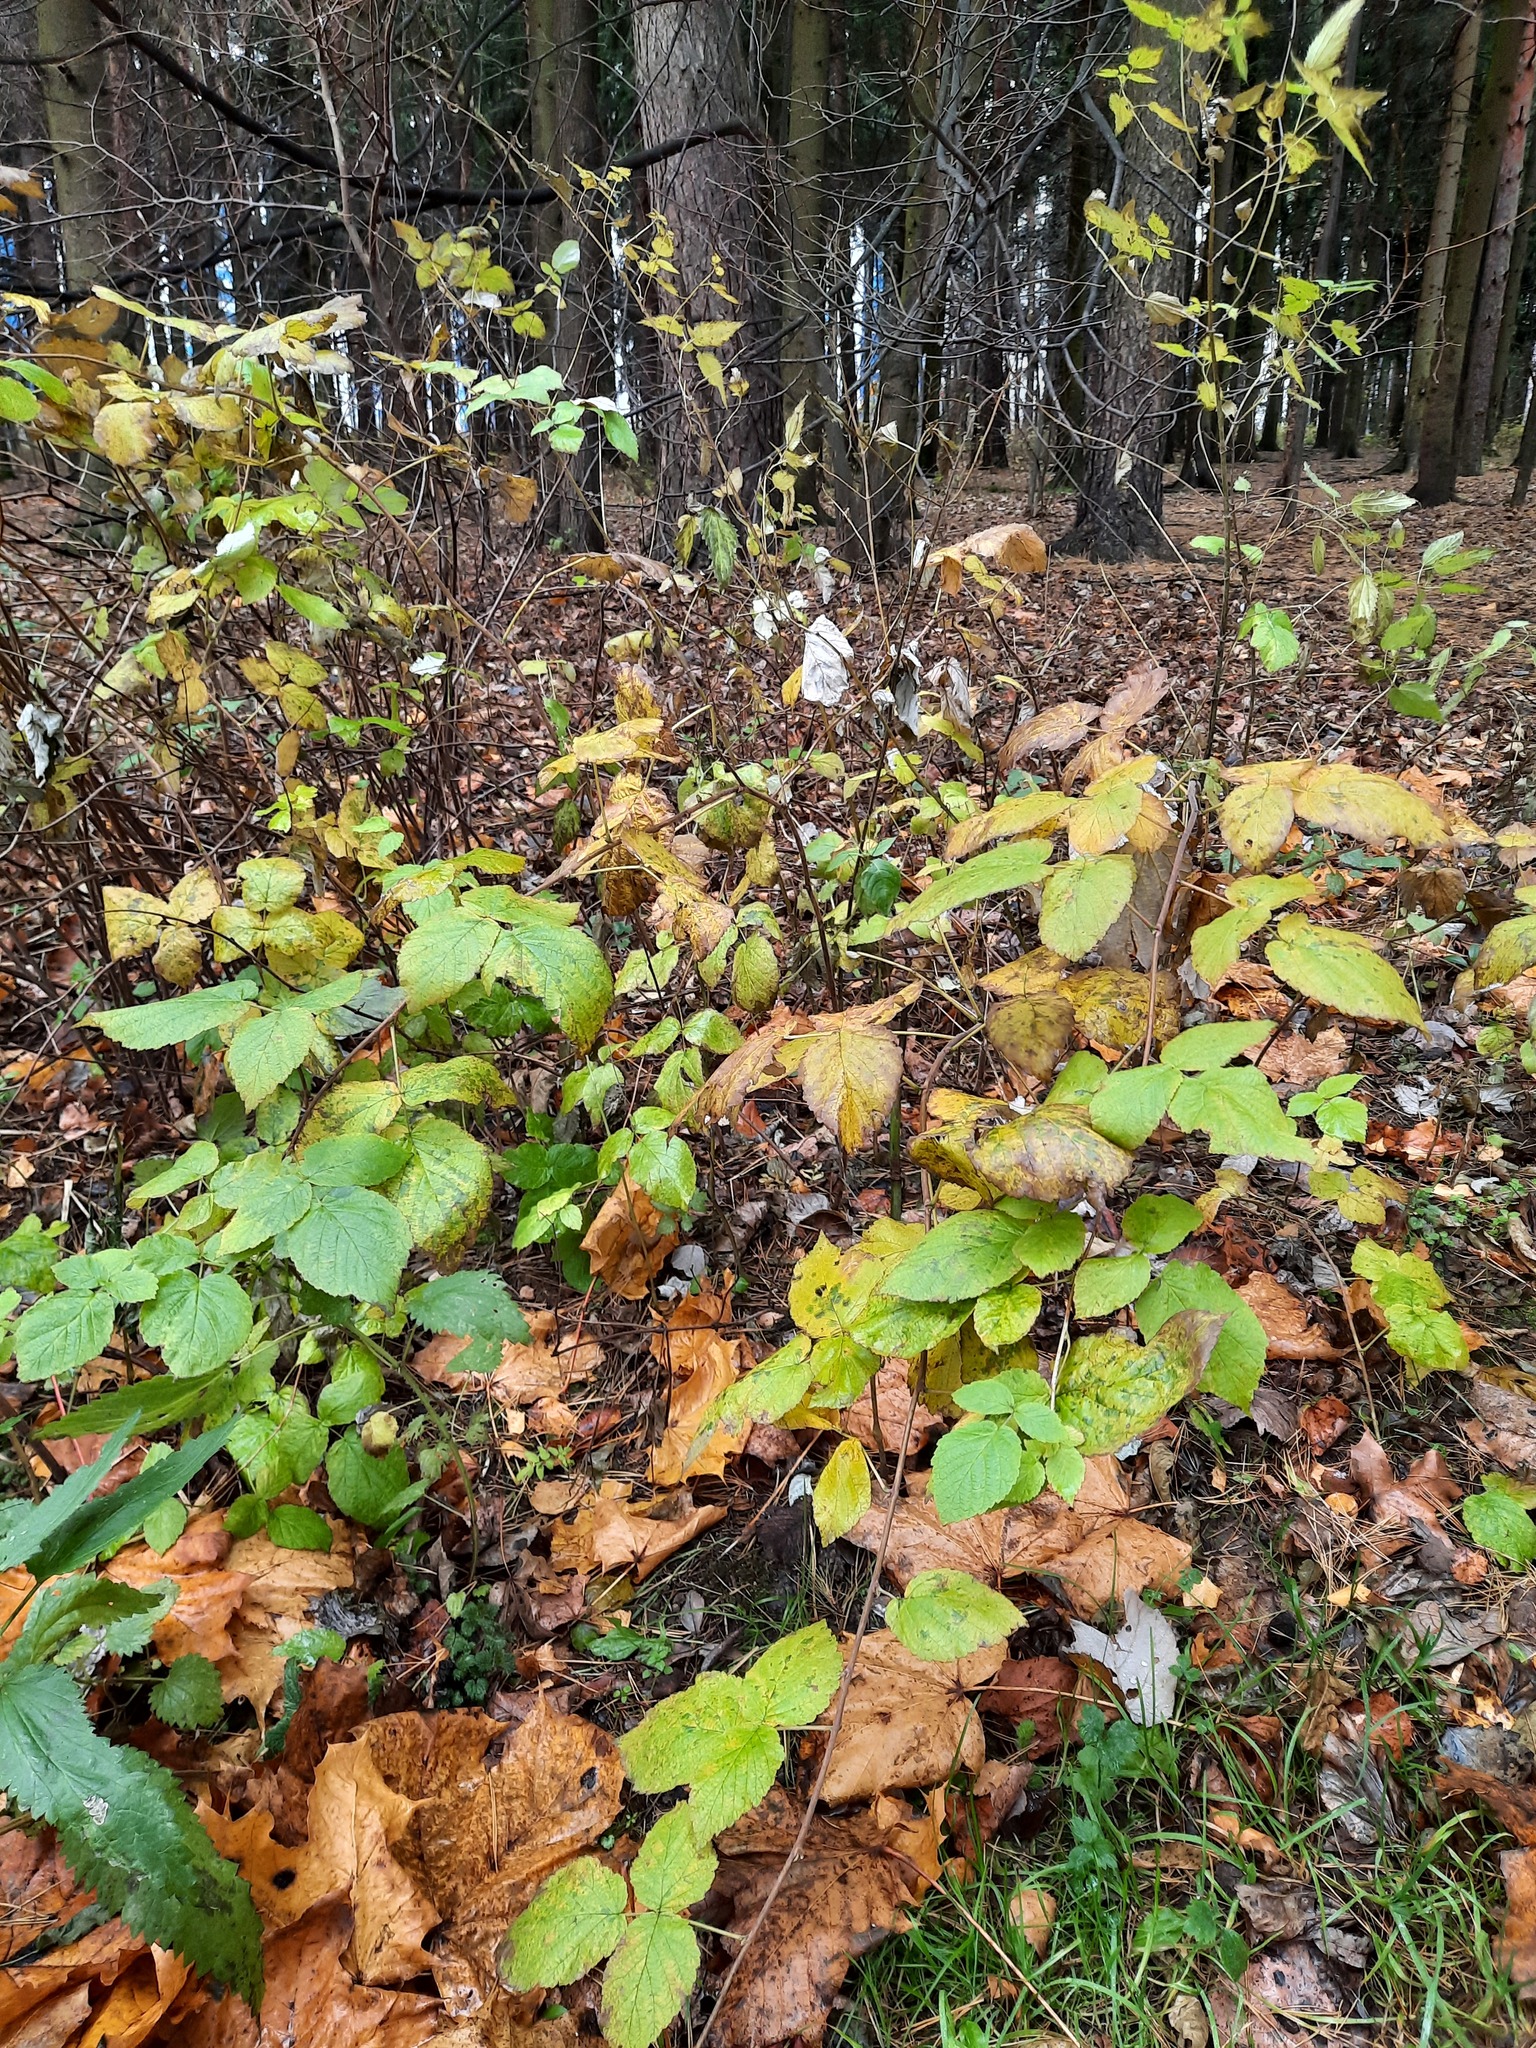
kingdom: Plantae
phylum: Tracheophyta
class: Magnoliopsida
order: Rosales
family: Rosaceae
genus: Rubus
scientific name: Rubus idaeus
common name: Raspberry
